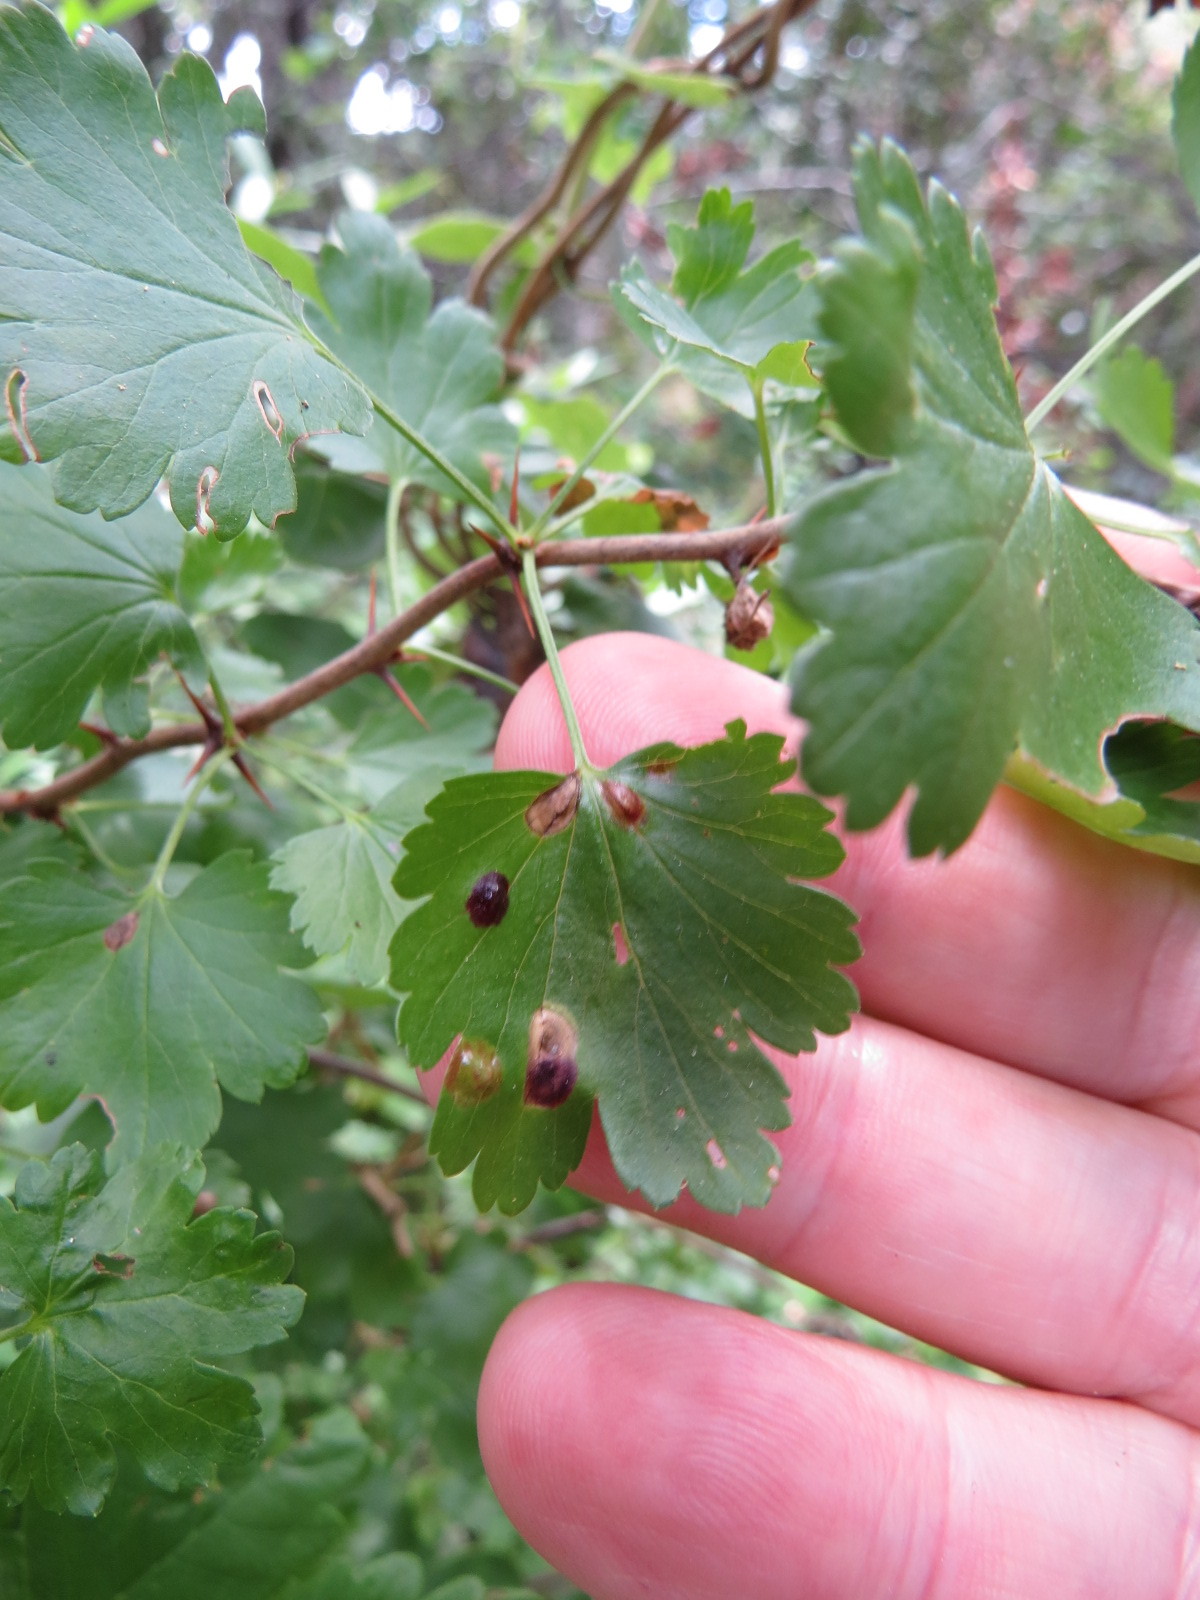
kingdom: Animalia
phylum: Arthropoda
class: Insecta
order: Diptera
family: Cecidomyiidae
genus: Ribesia
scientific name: Ribesia
